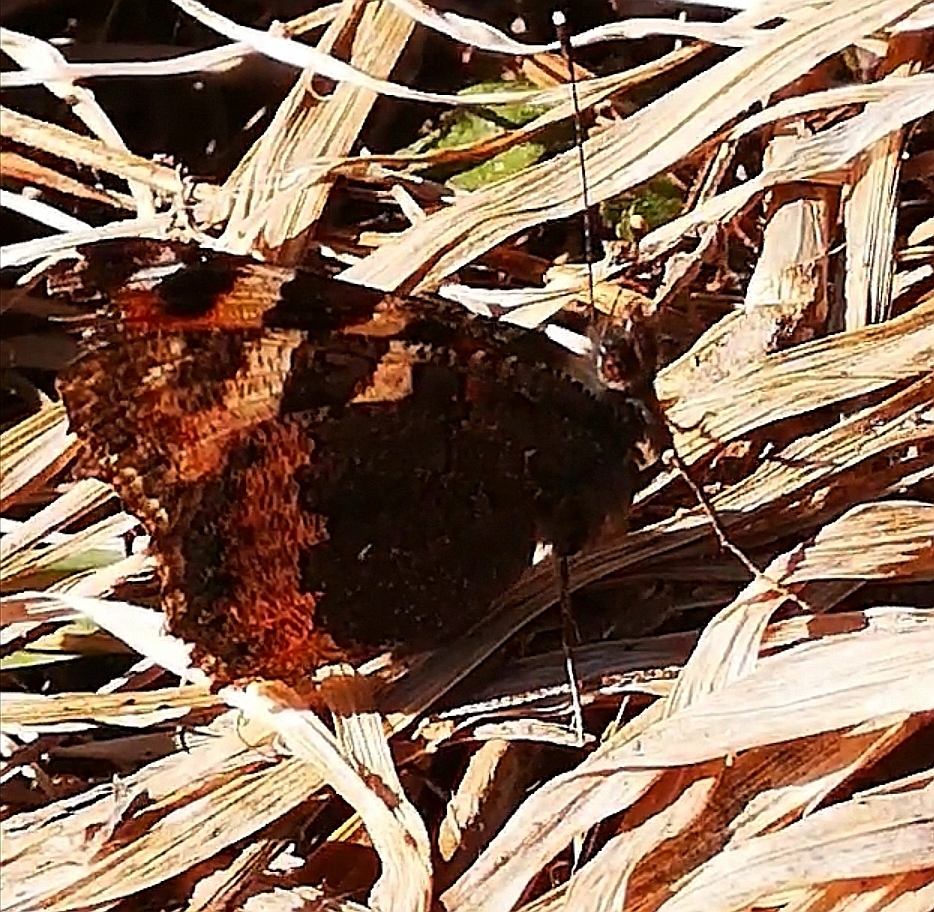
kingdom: Animalia
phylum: Arthropoda
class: Insecta
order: Lepidoptera
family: Nymphalidae
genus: Aglais
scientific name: Aglais urticae
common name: Small tortoiseshell
